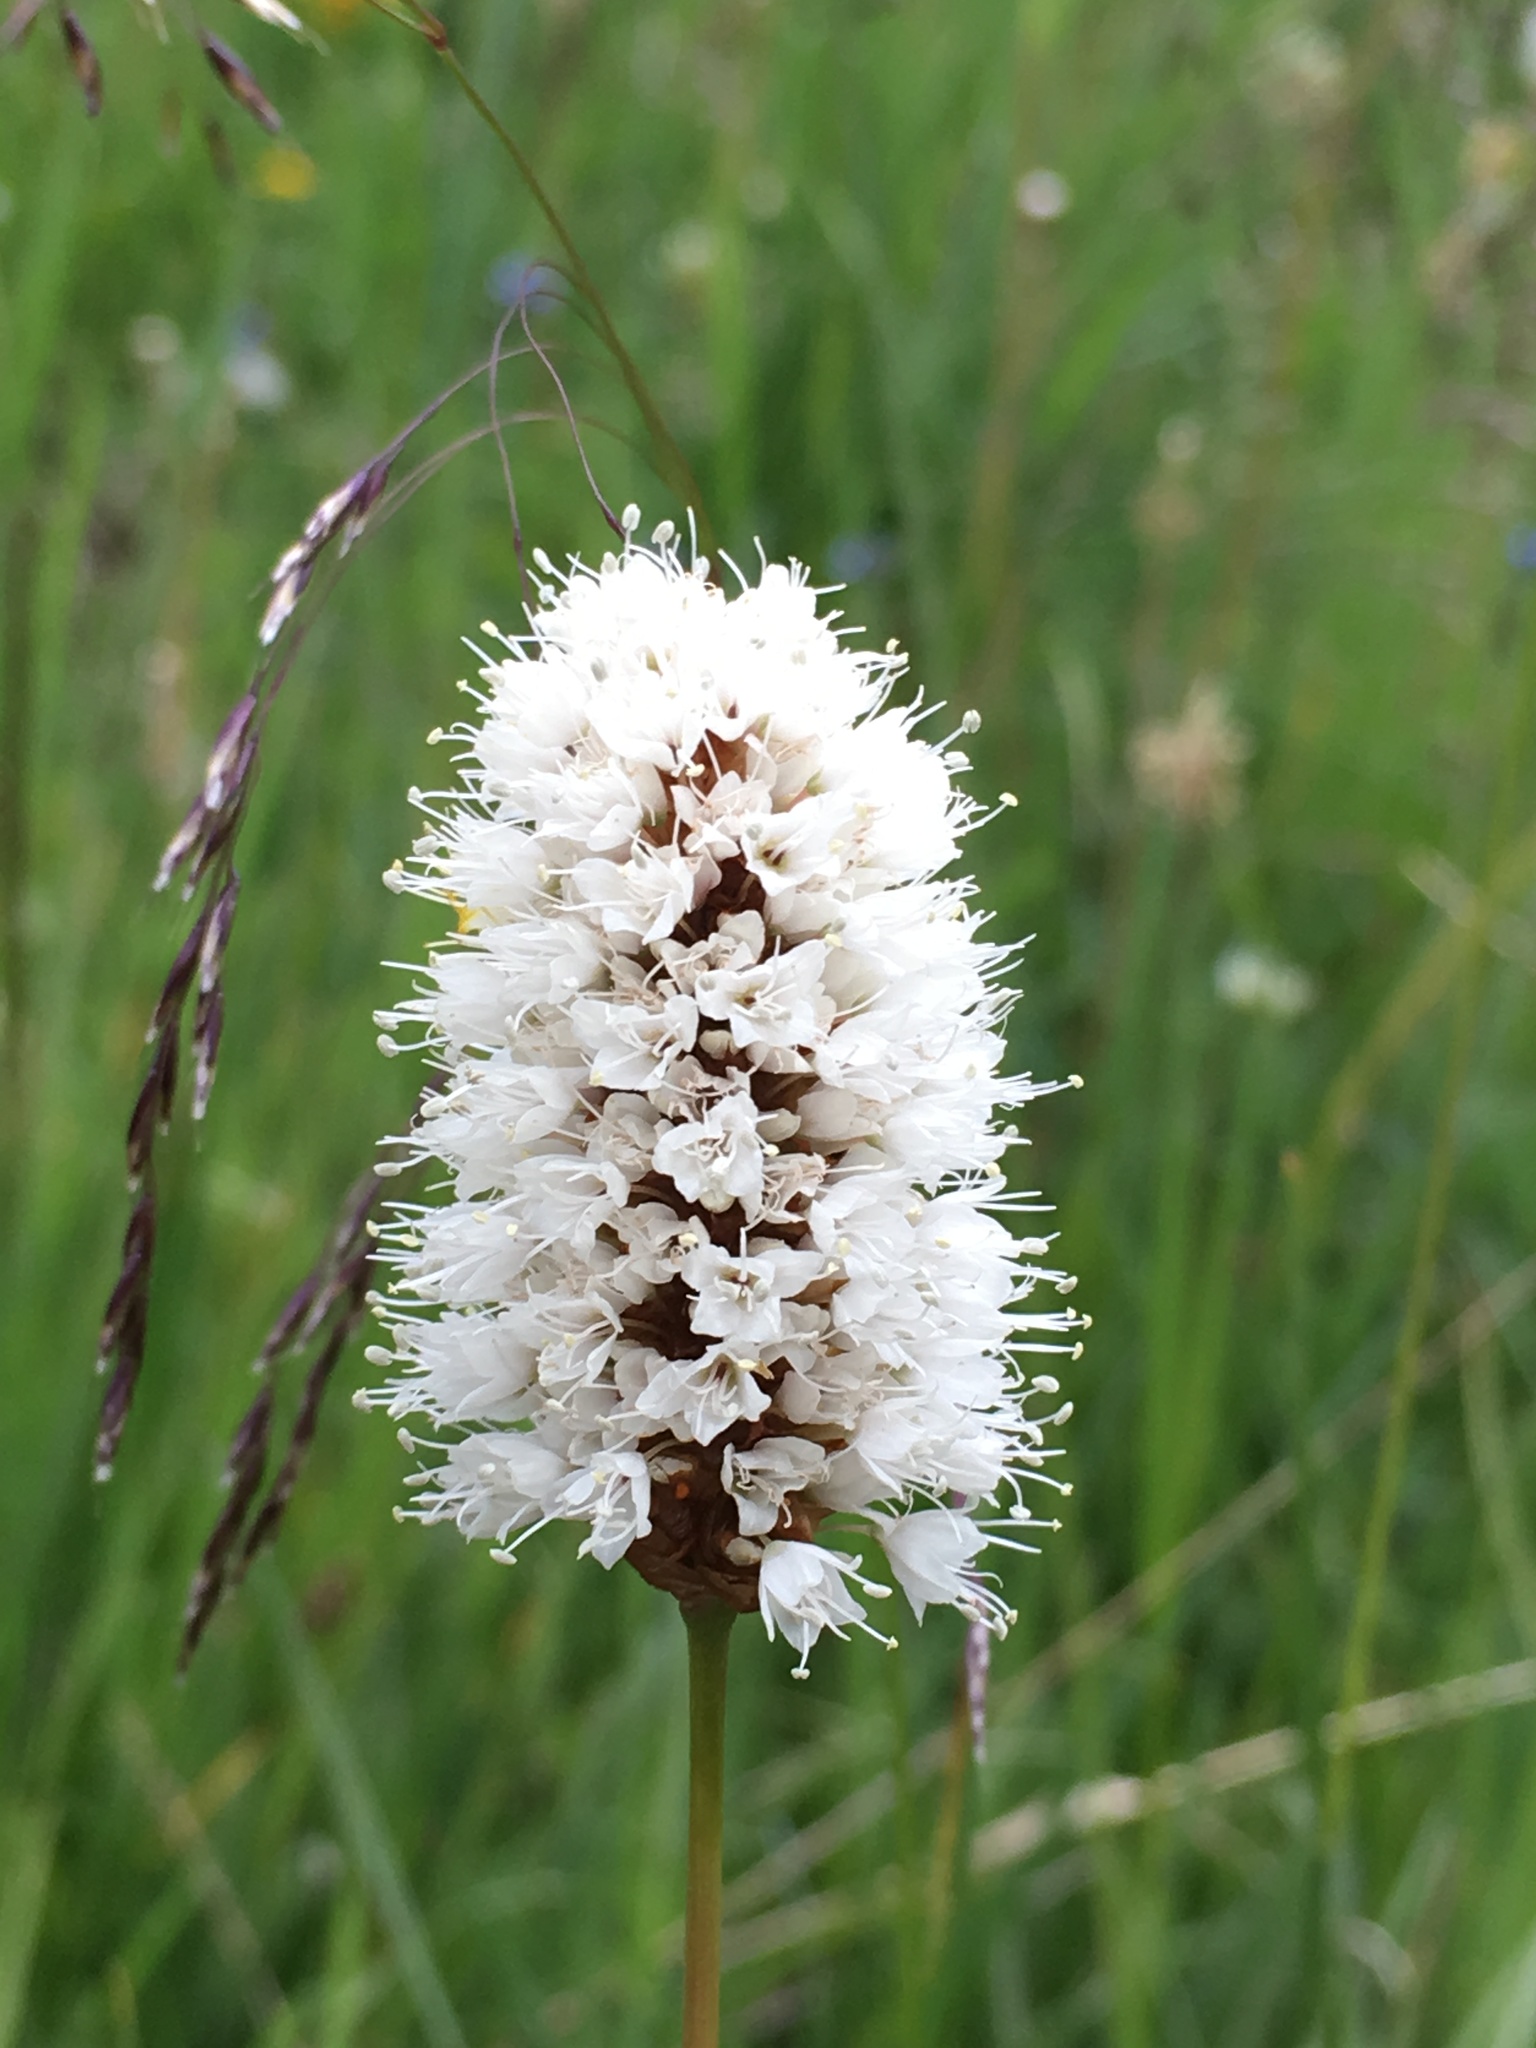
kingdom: Plantae
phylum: Tracheophyta
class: Magnoliopsida
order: Caryophyllales
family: Polygonaceae
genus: Bistorta
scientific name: Bistorta bistortoides
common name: American bistort
